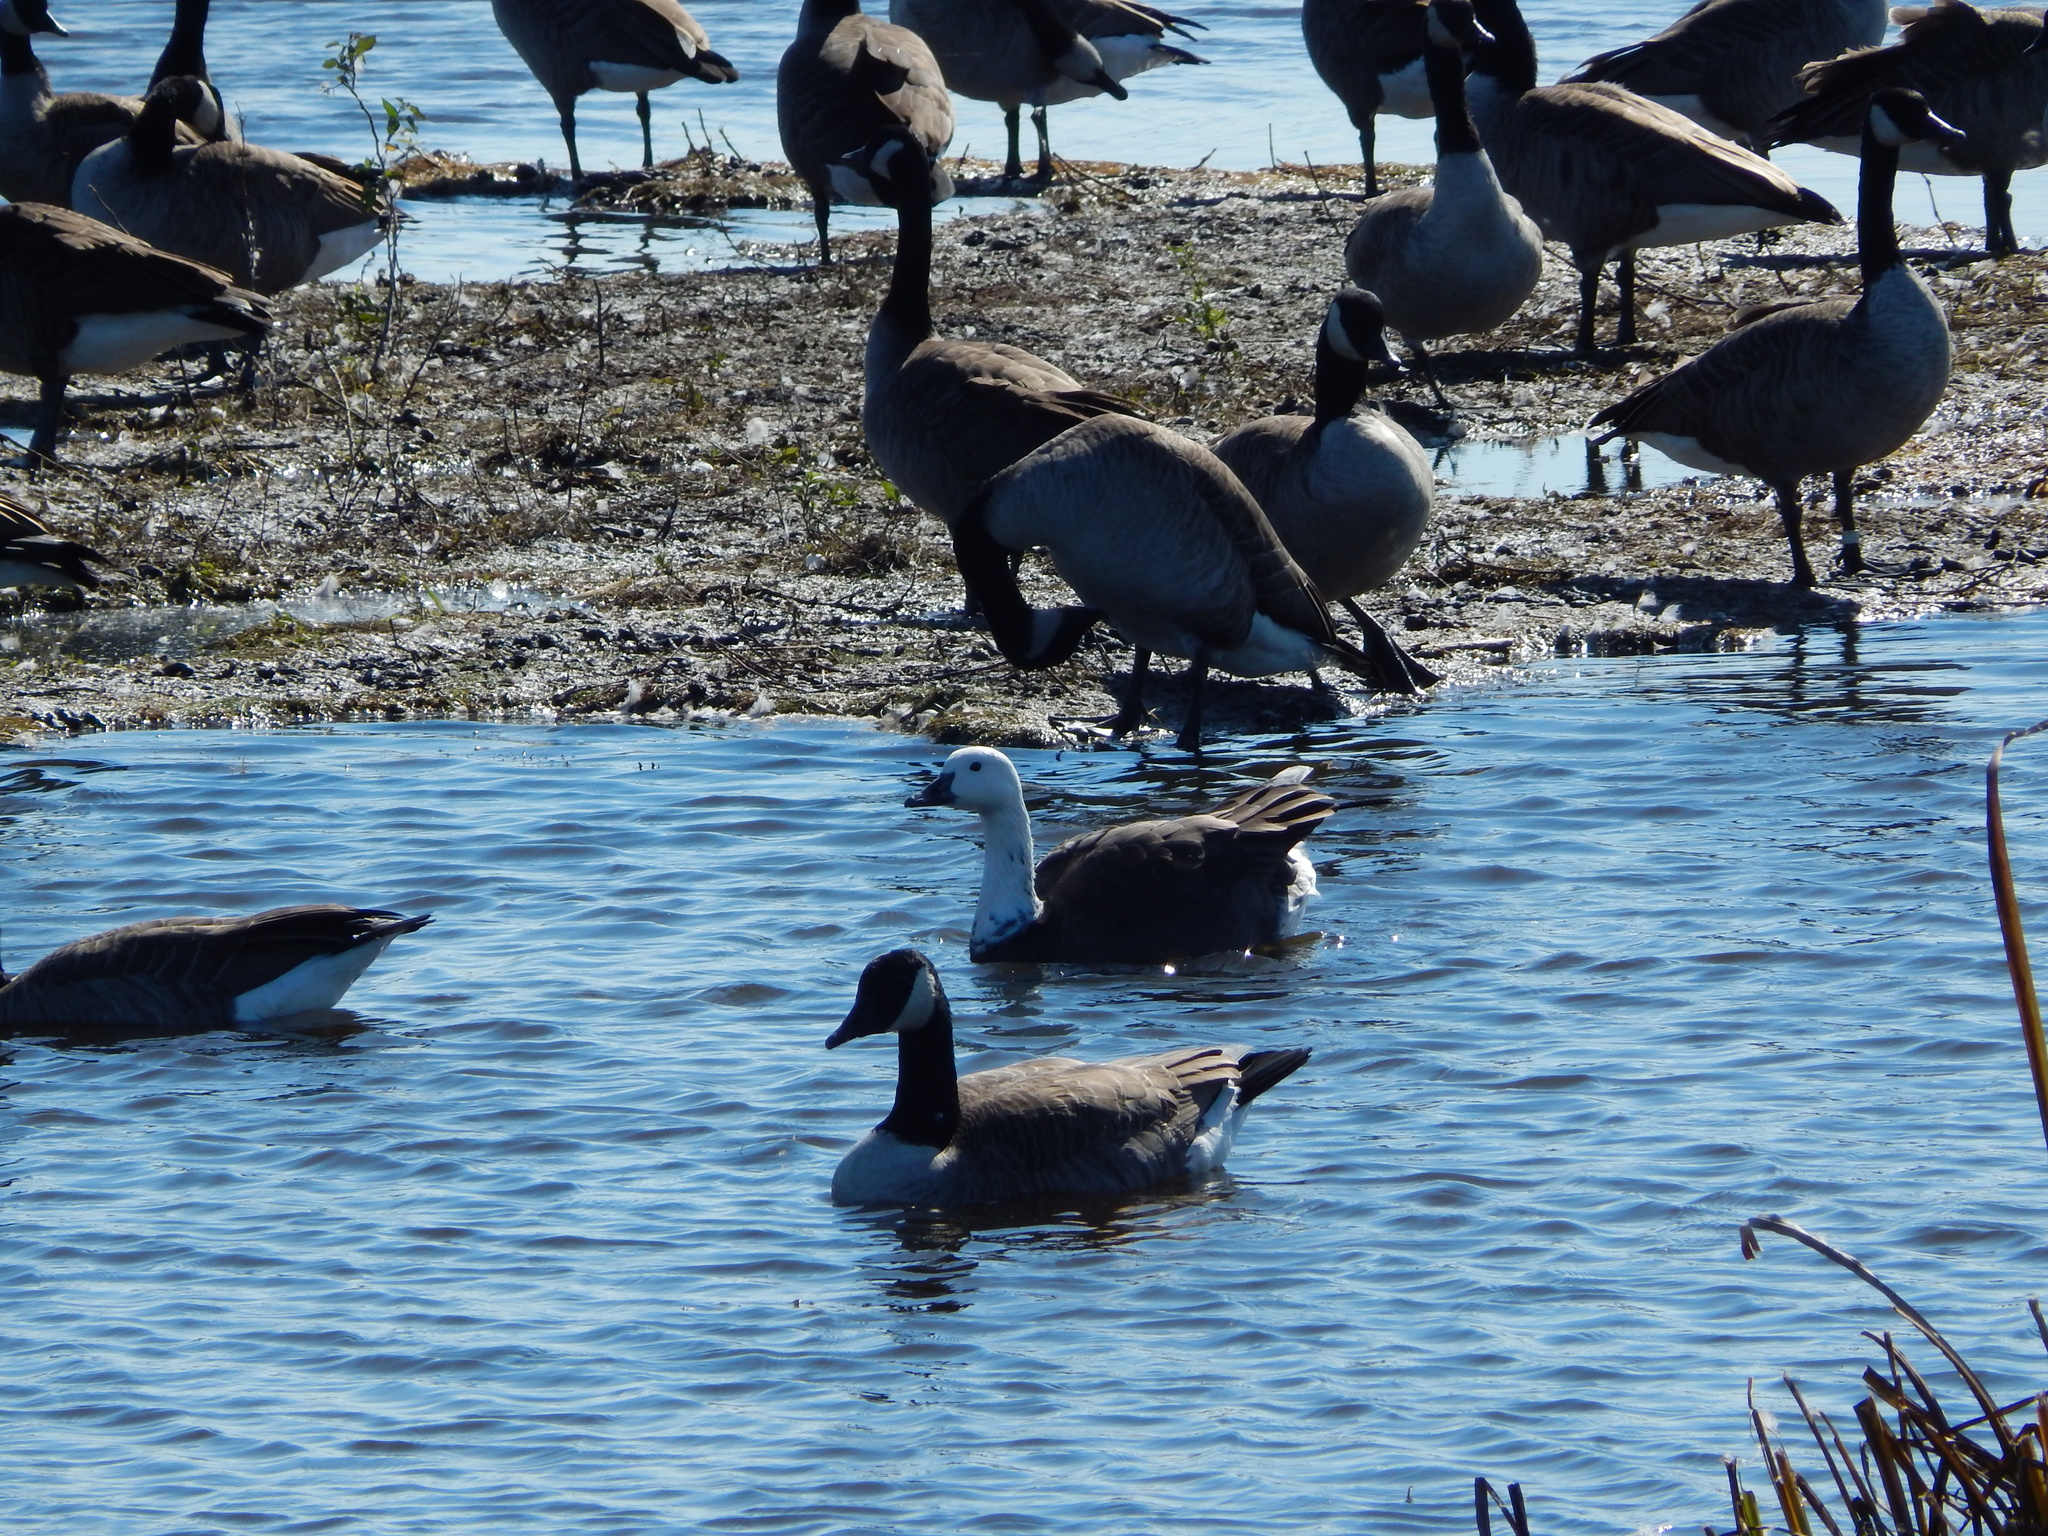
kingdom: Animalia
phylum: Chordata
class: Aves
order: Anseriformes
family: Anatidae
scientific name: Anatidae
